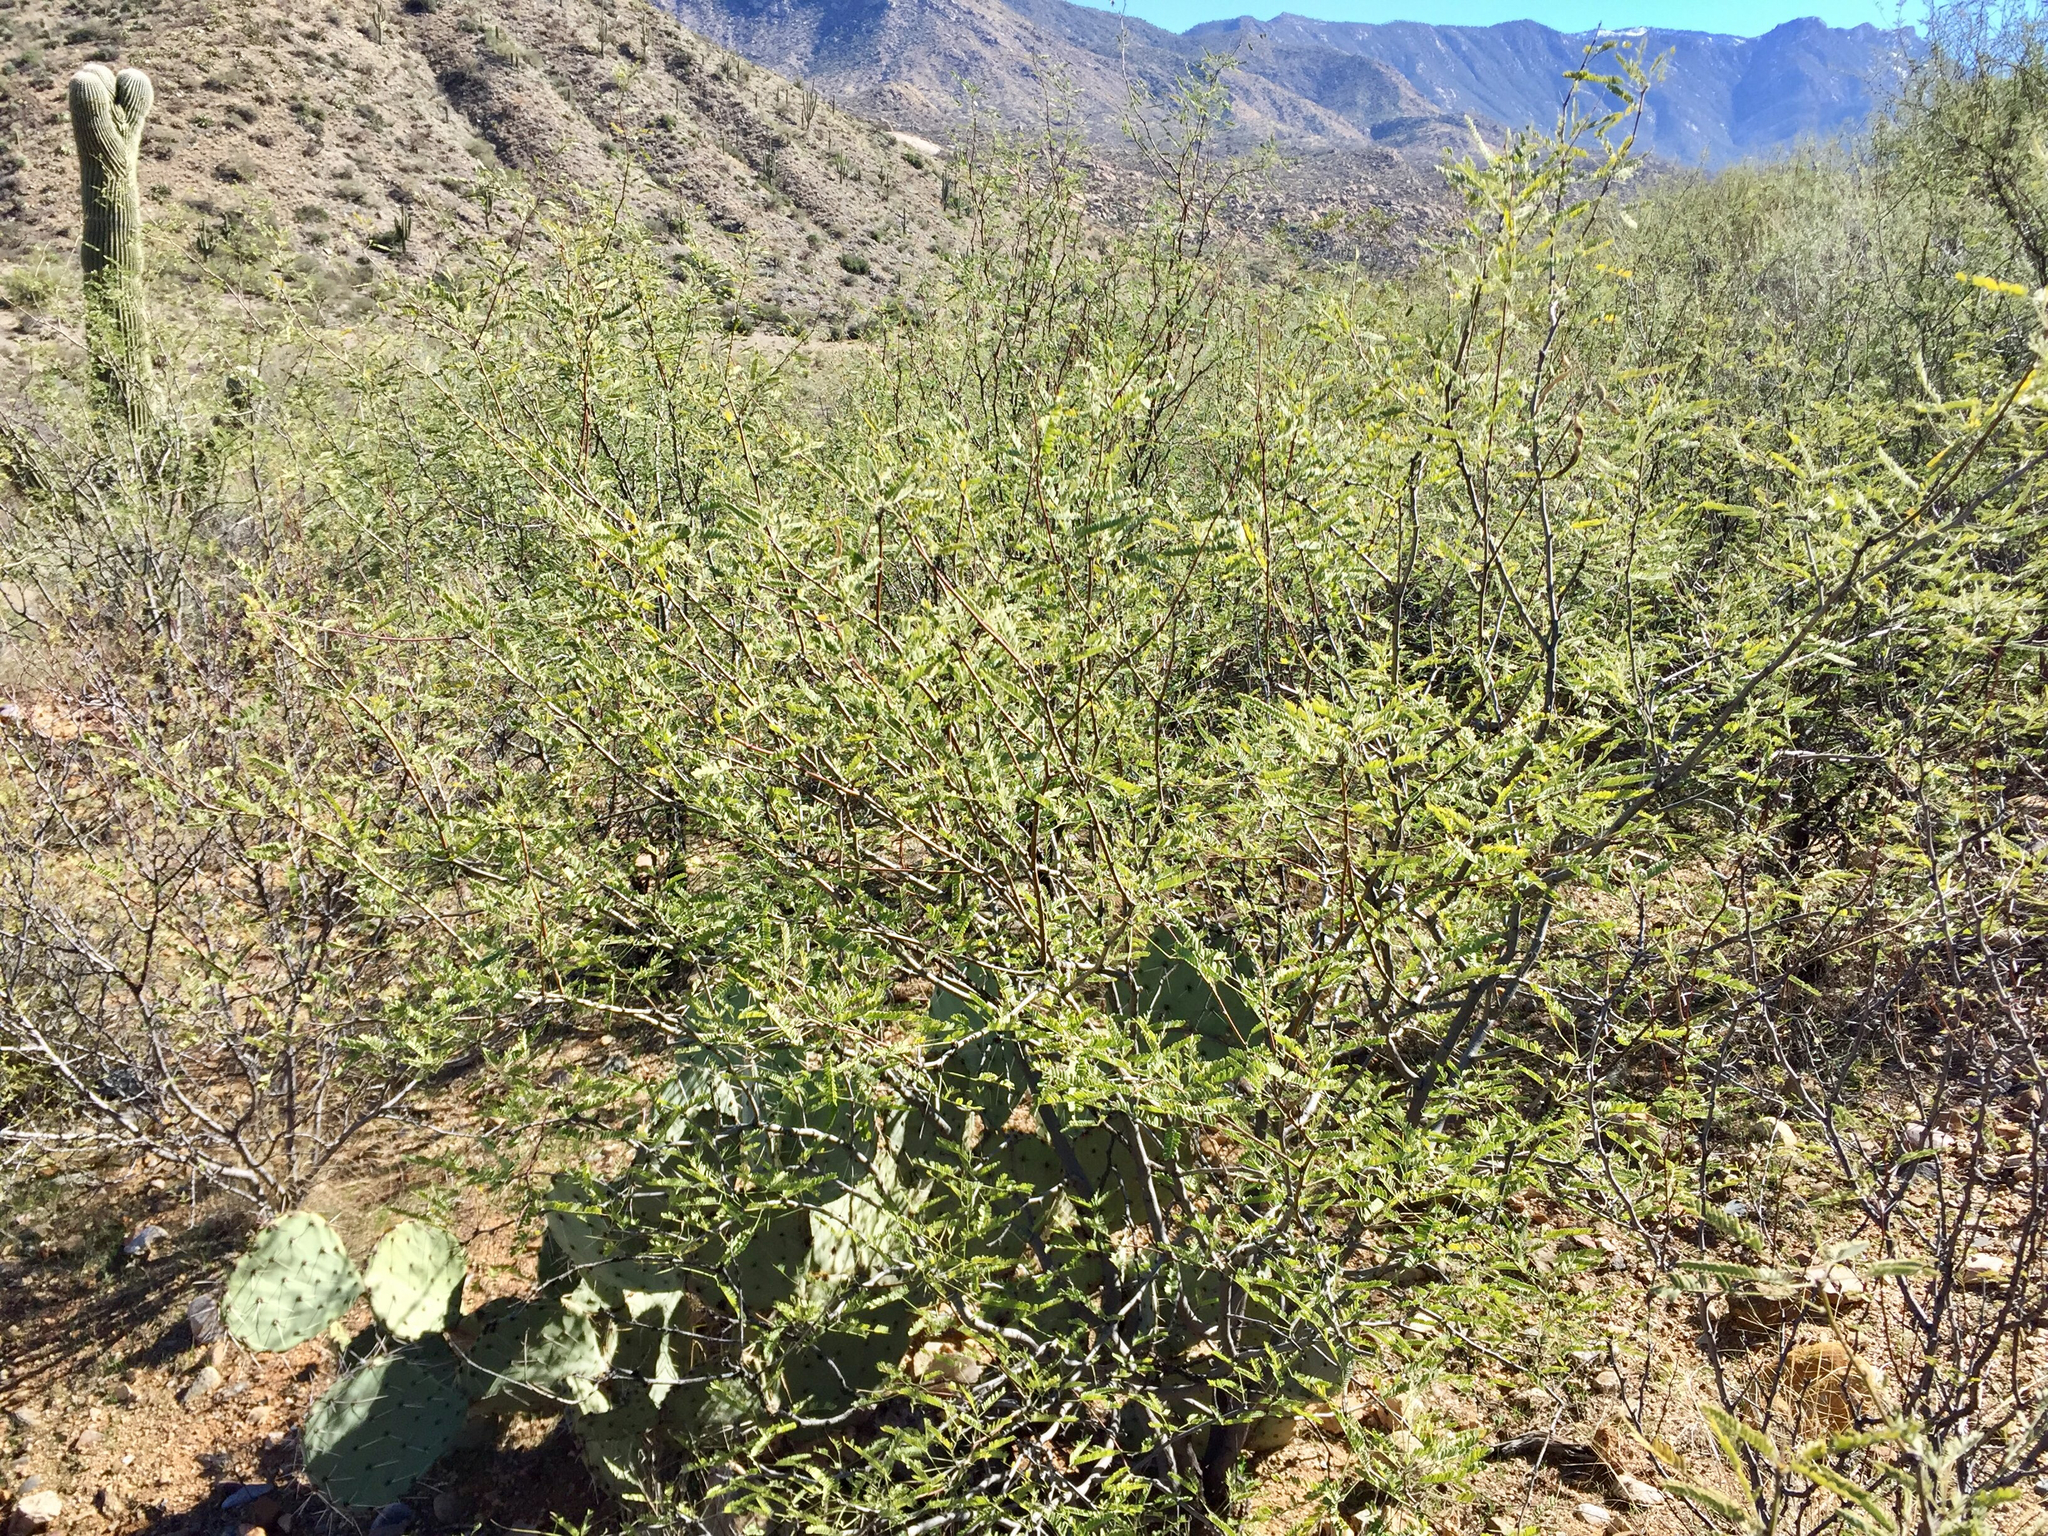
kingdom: Plantae
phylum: Tracheophyta
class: Magnoliopsida
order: Fabales
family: Fabaceae
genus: Prosopis
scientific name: Prosopis velutina
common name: Velvet mesquite
